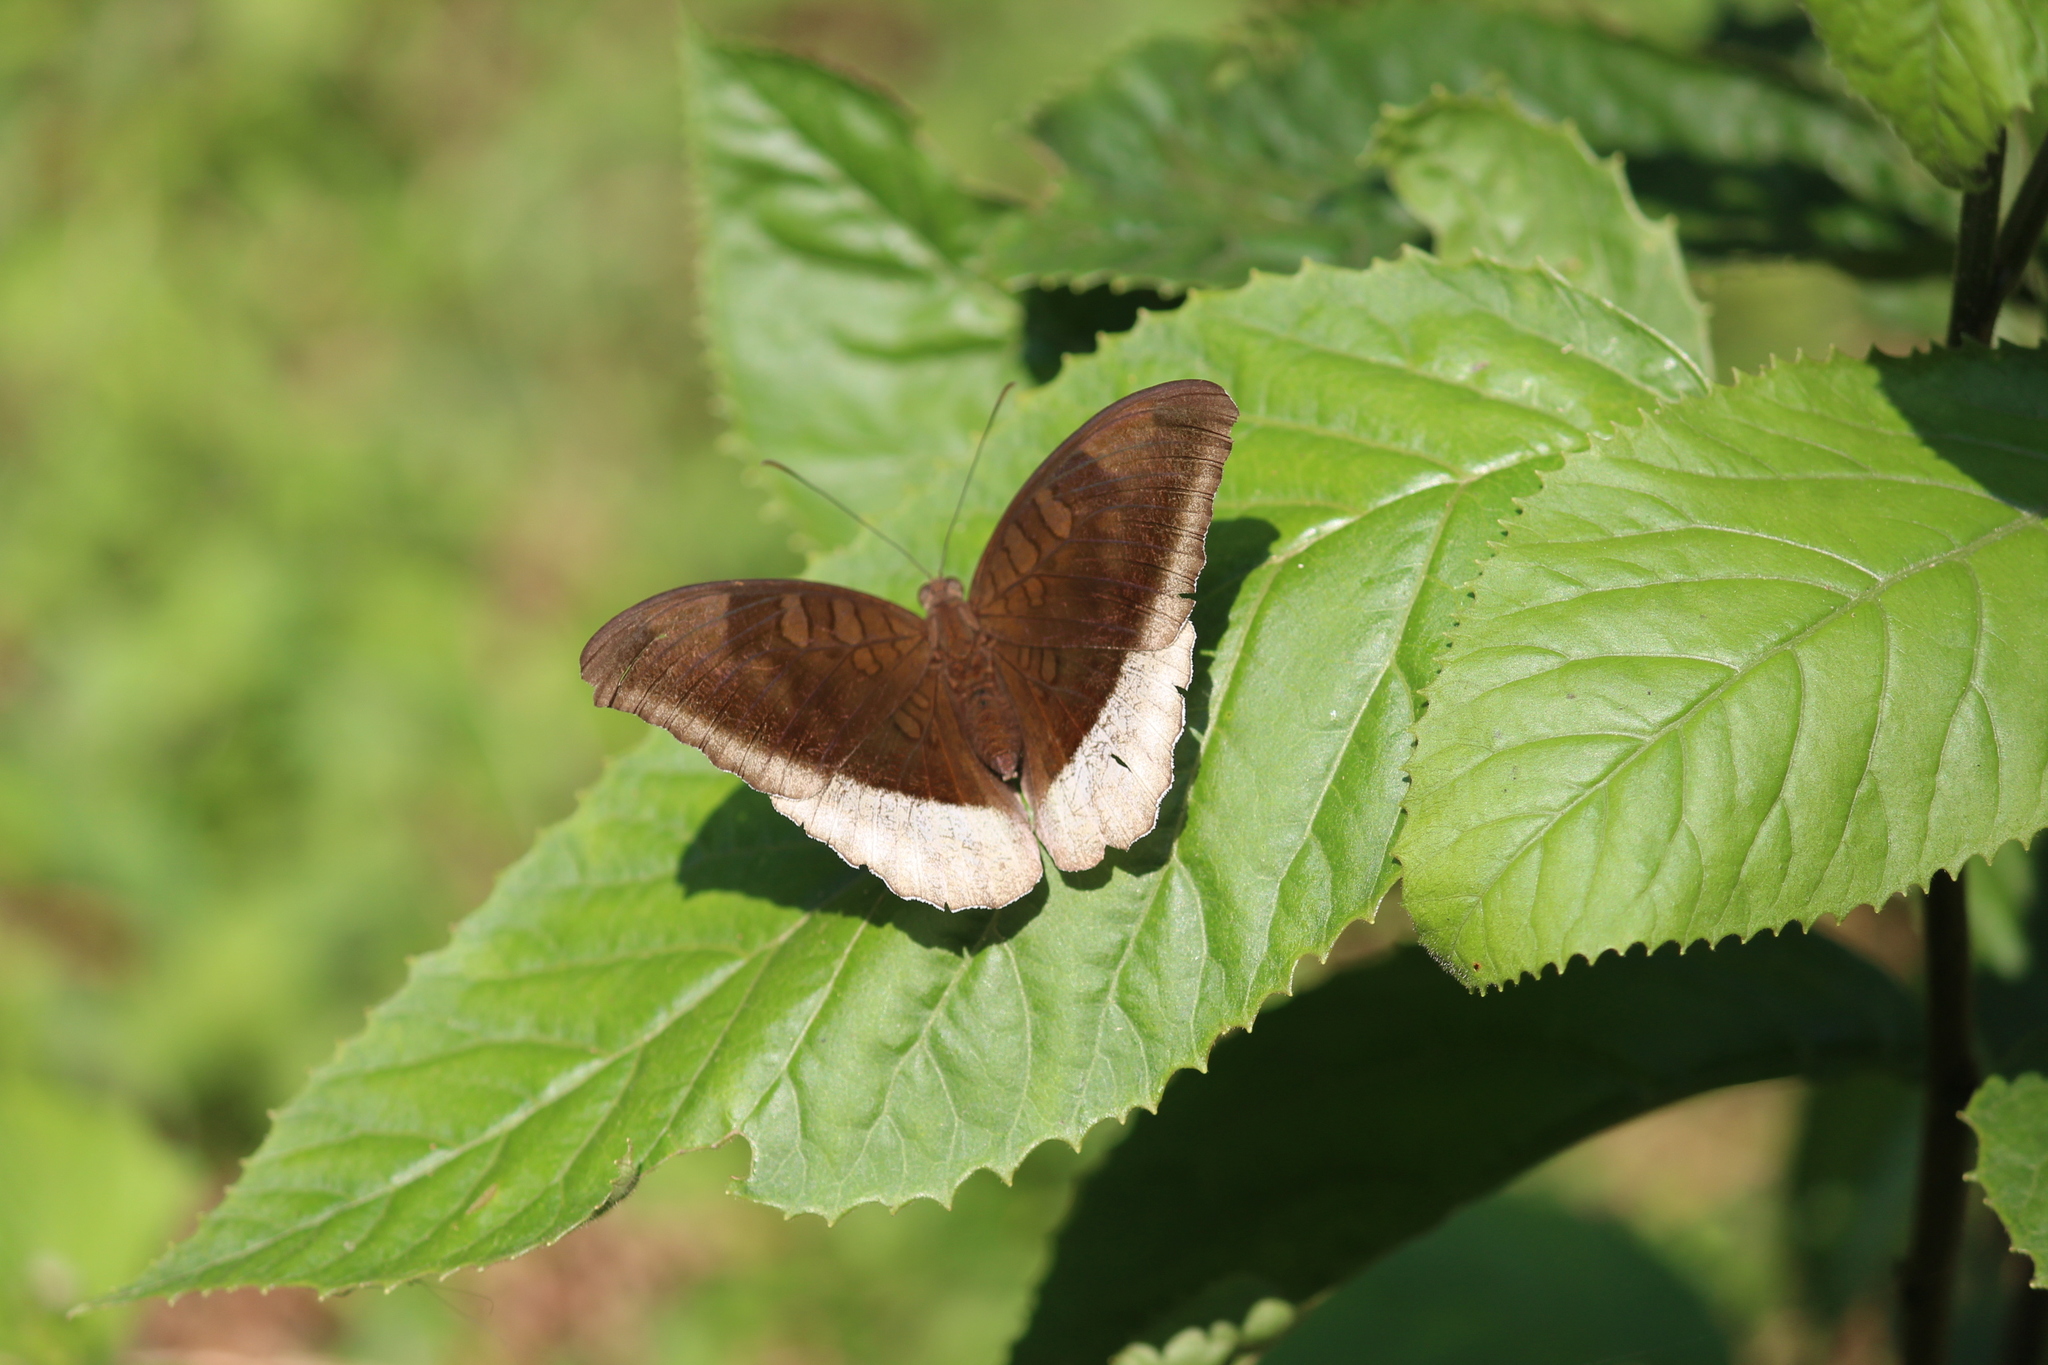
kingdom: Animalia
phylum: Arthropoda
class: Insecta
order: Lepidoptera
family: Nymphalidae
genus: Tanaecia
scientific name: Tanaecia lepidea
